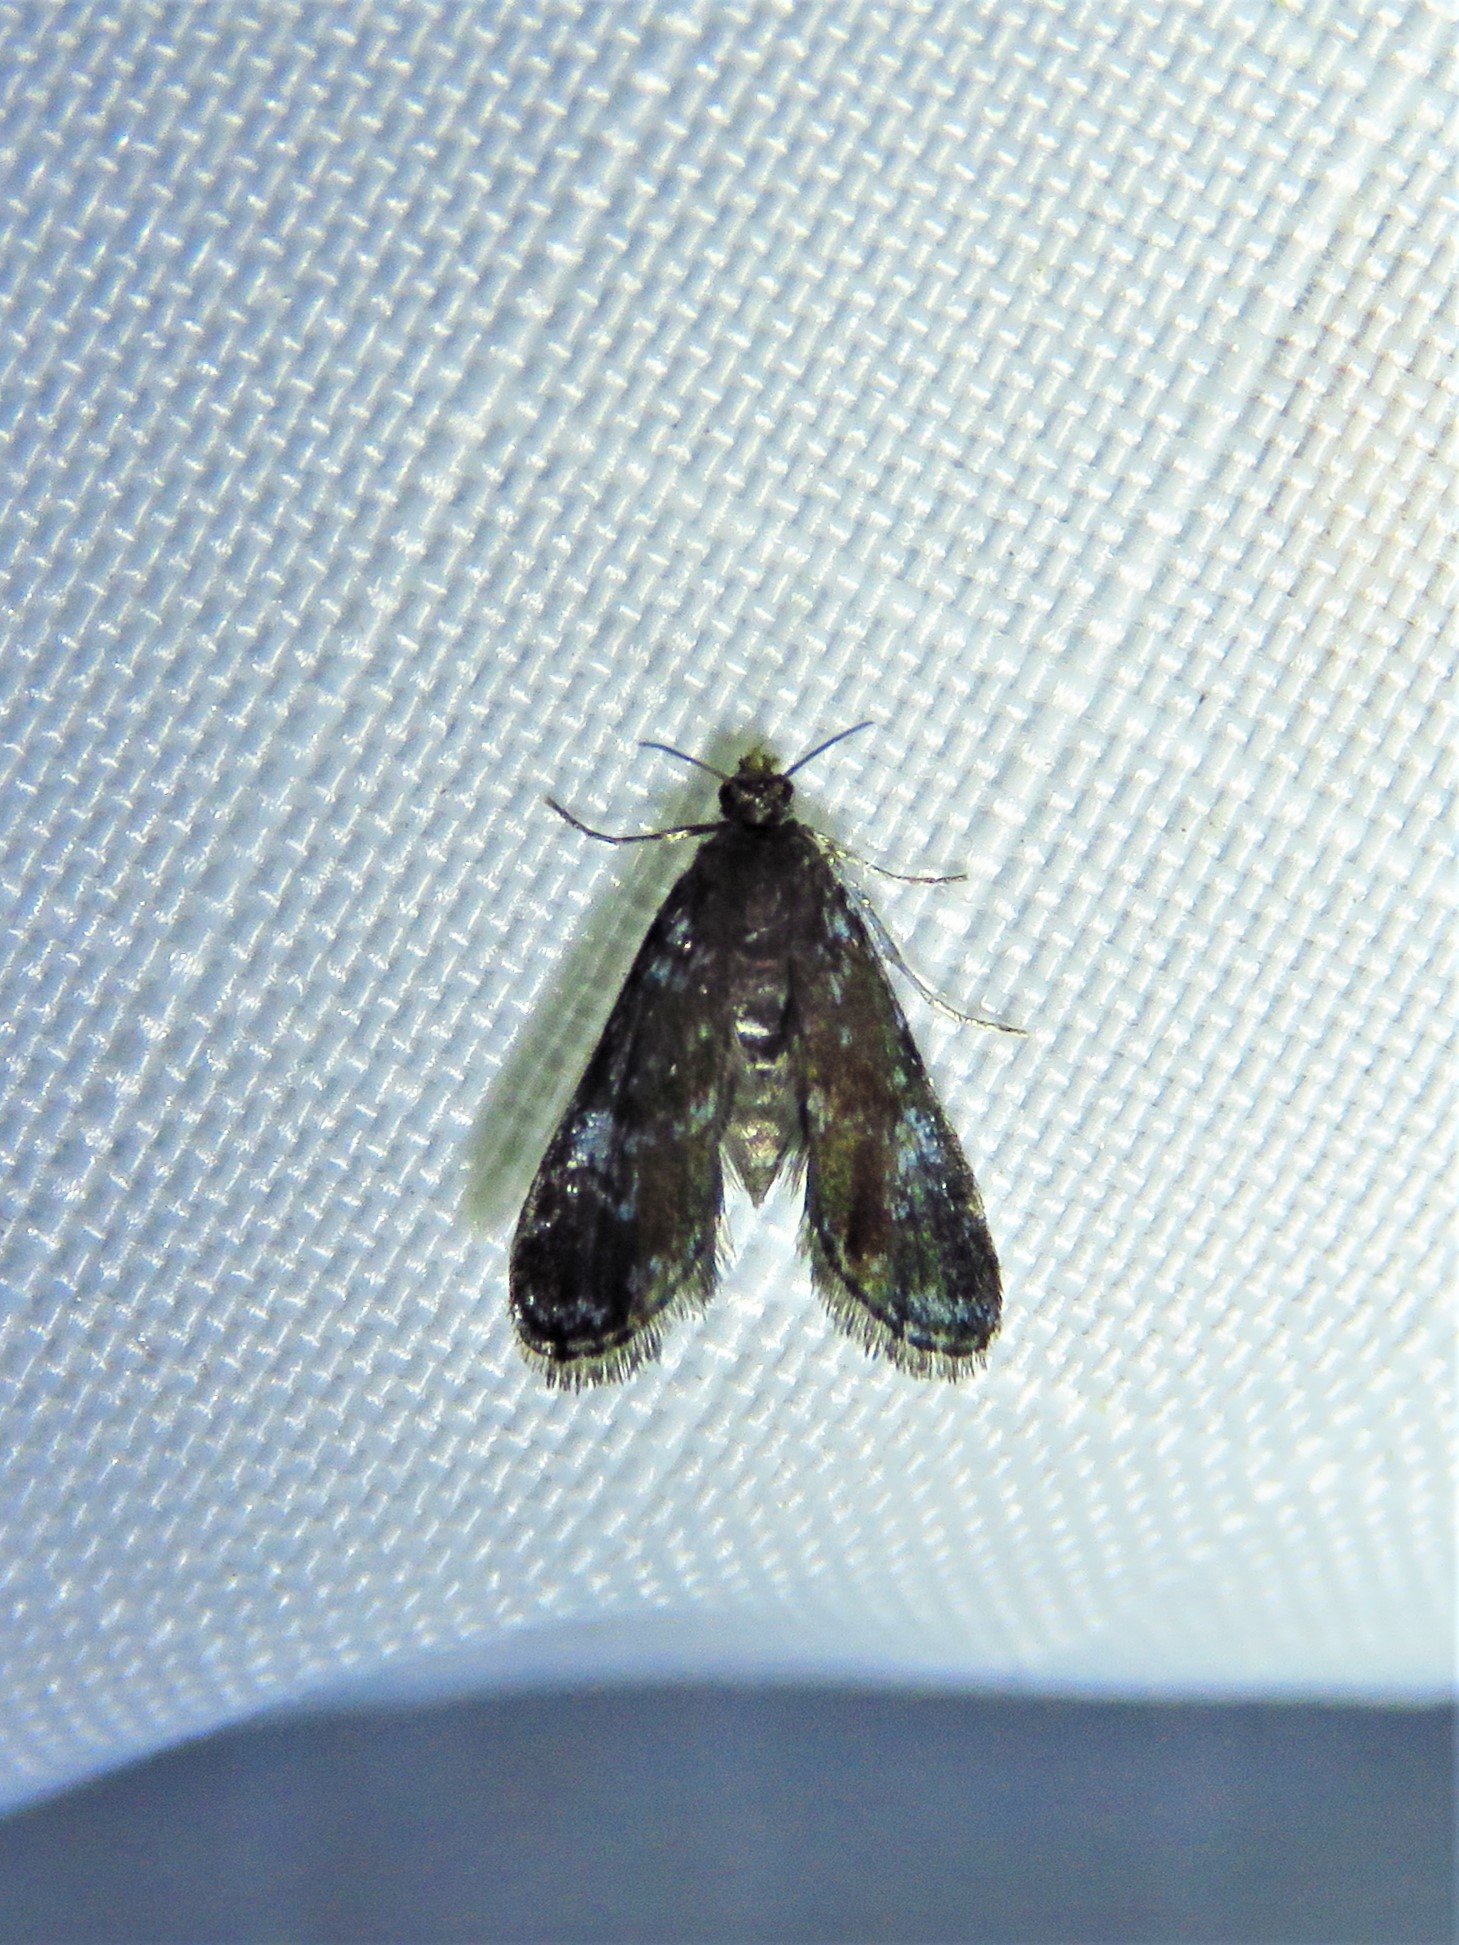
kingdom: Animalia
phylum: Arthropoda
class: Insecta
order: Lepidoptera
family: Crambidae
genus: Elophila
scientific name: Elophila tinealis
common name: Black duckweed moth
